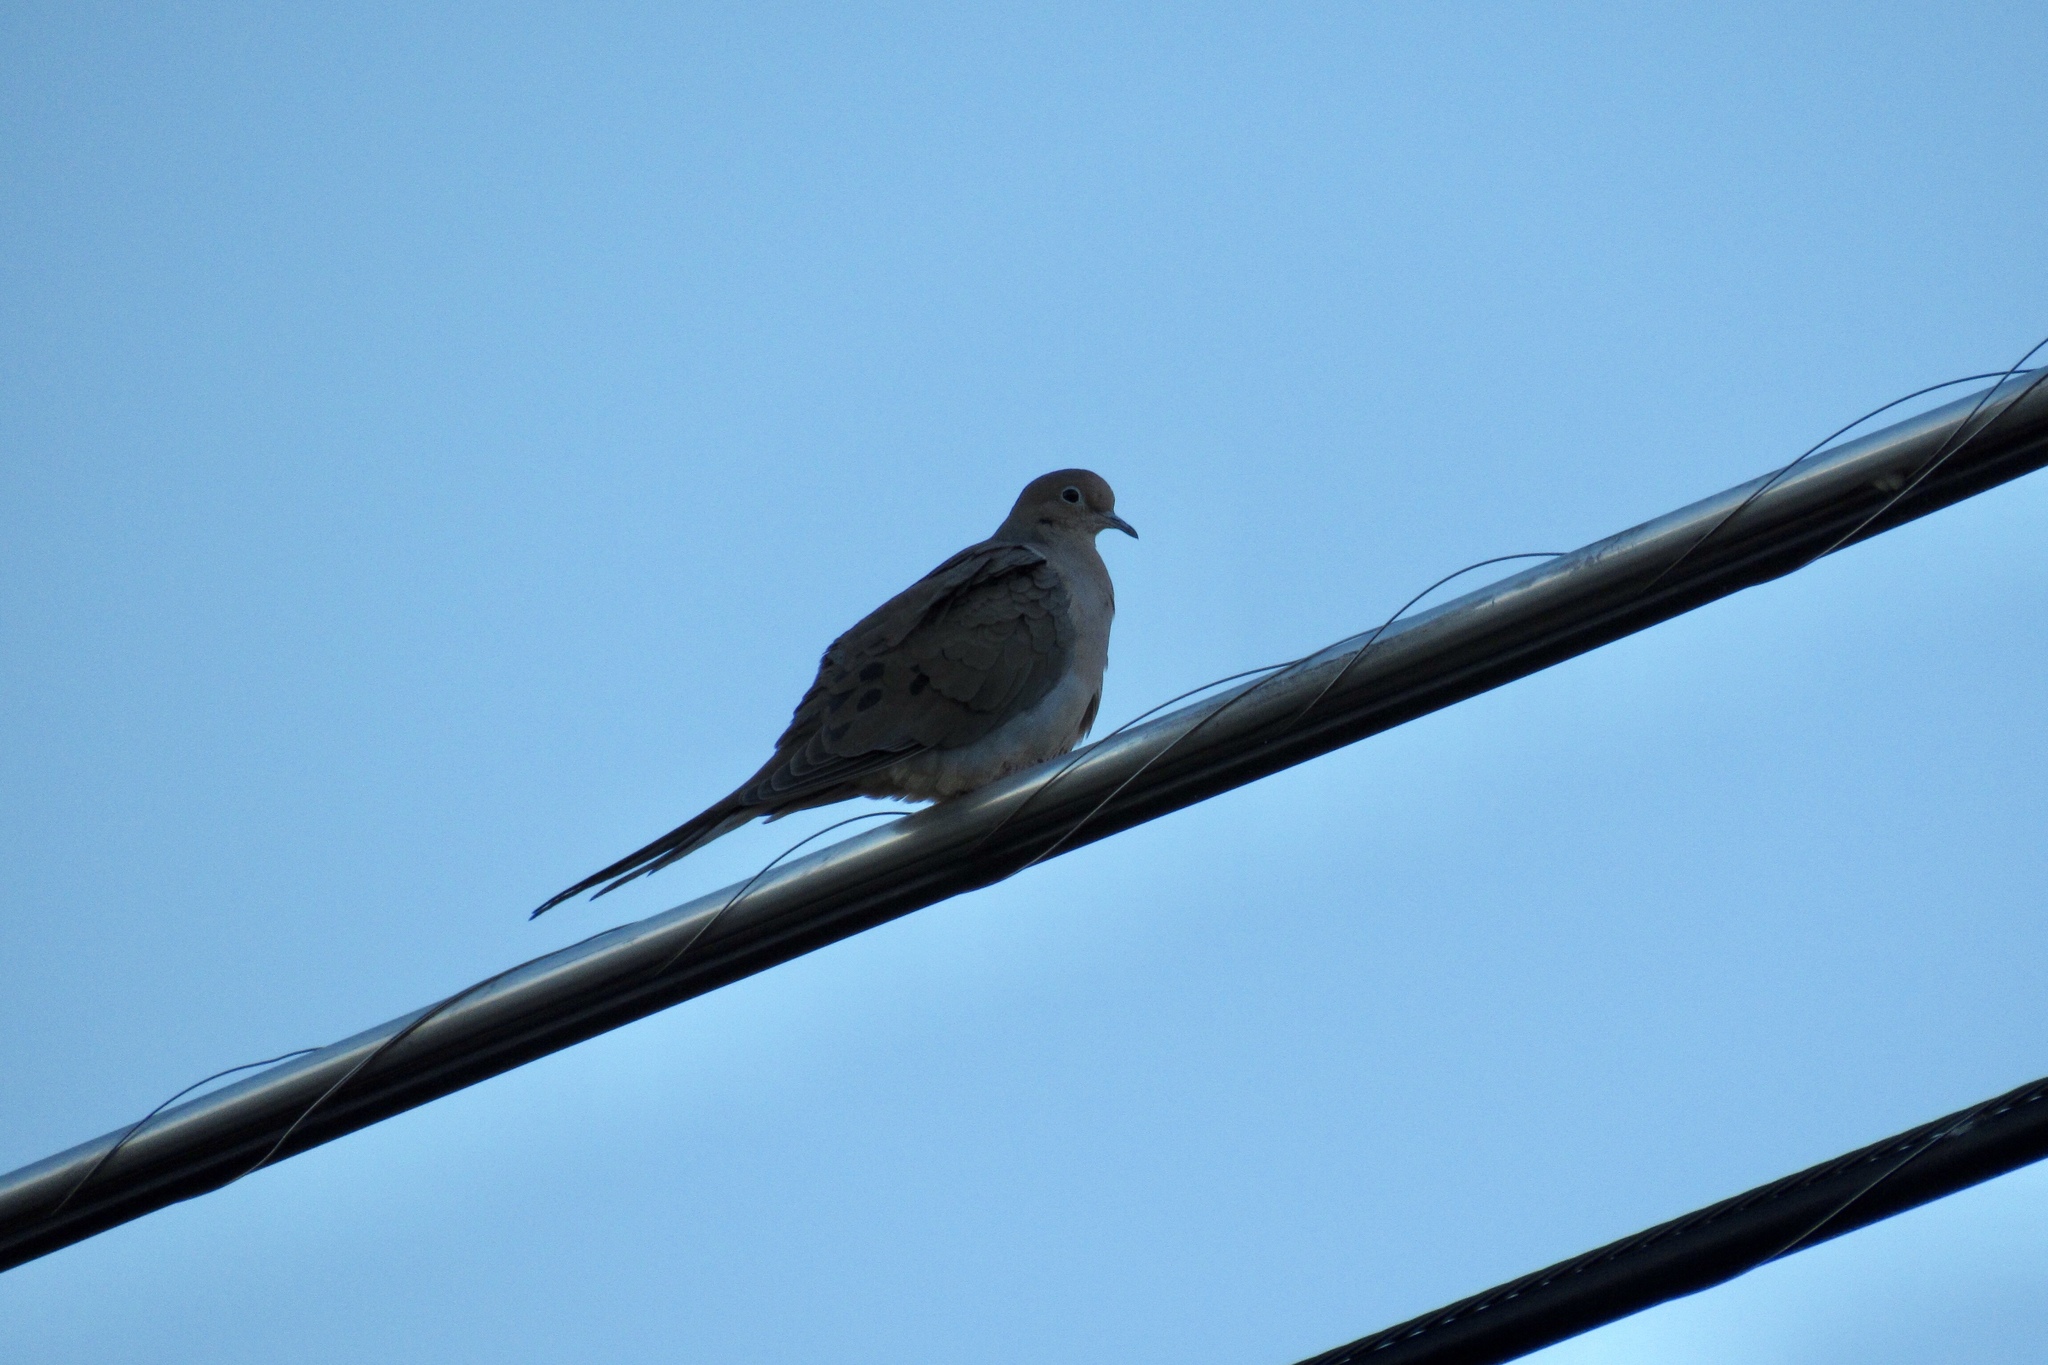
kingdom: Animalia
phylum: Chordata
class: Aves
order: Columbiformes
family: Columbidae
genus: Zenaida
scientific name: Zenaida macroura
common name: Mourning dove
